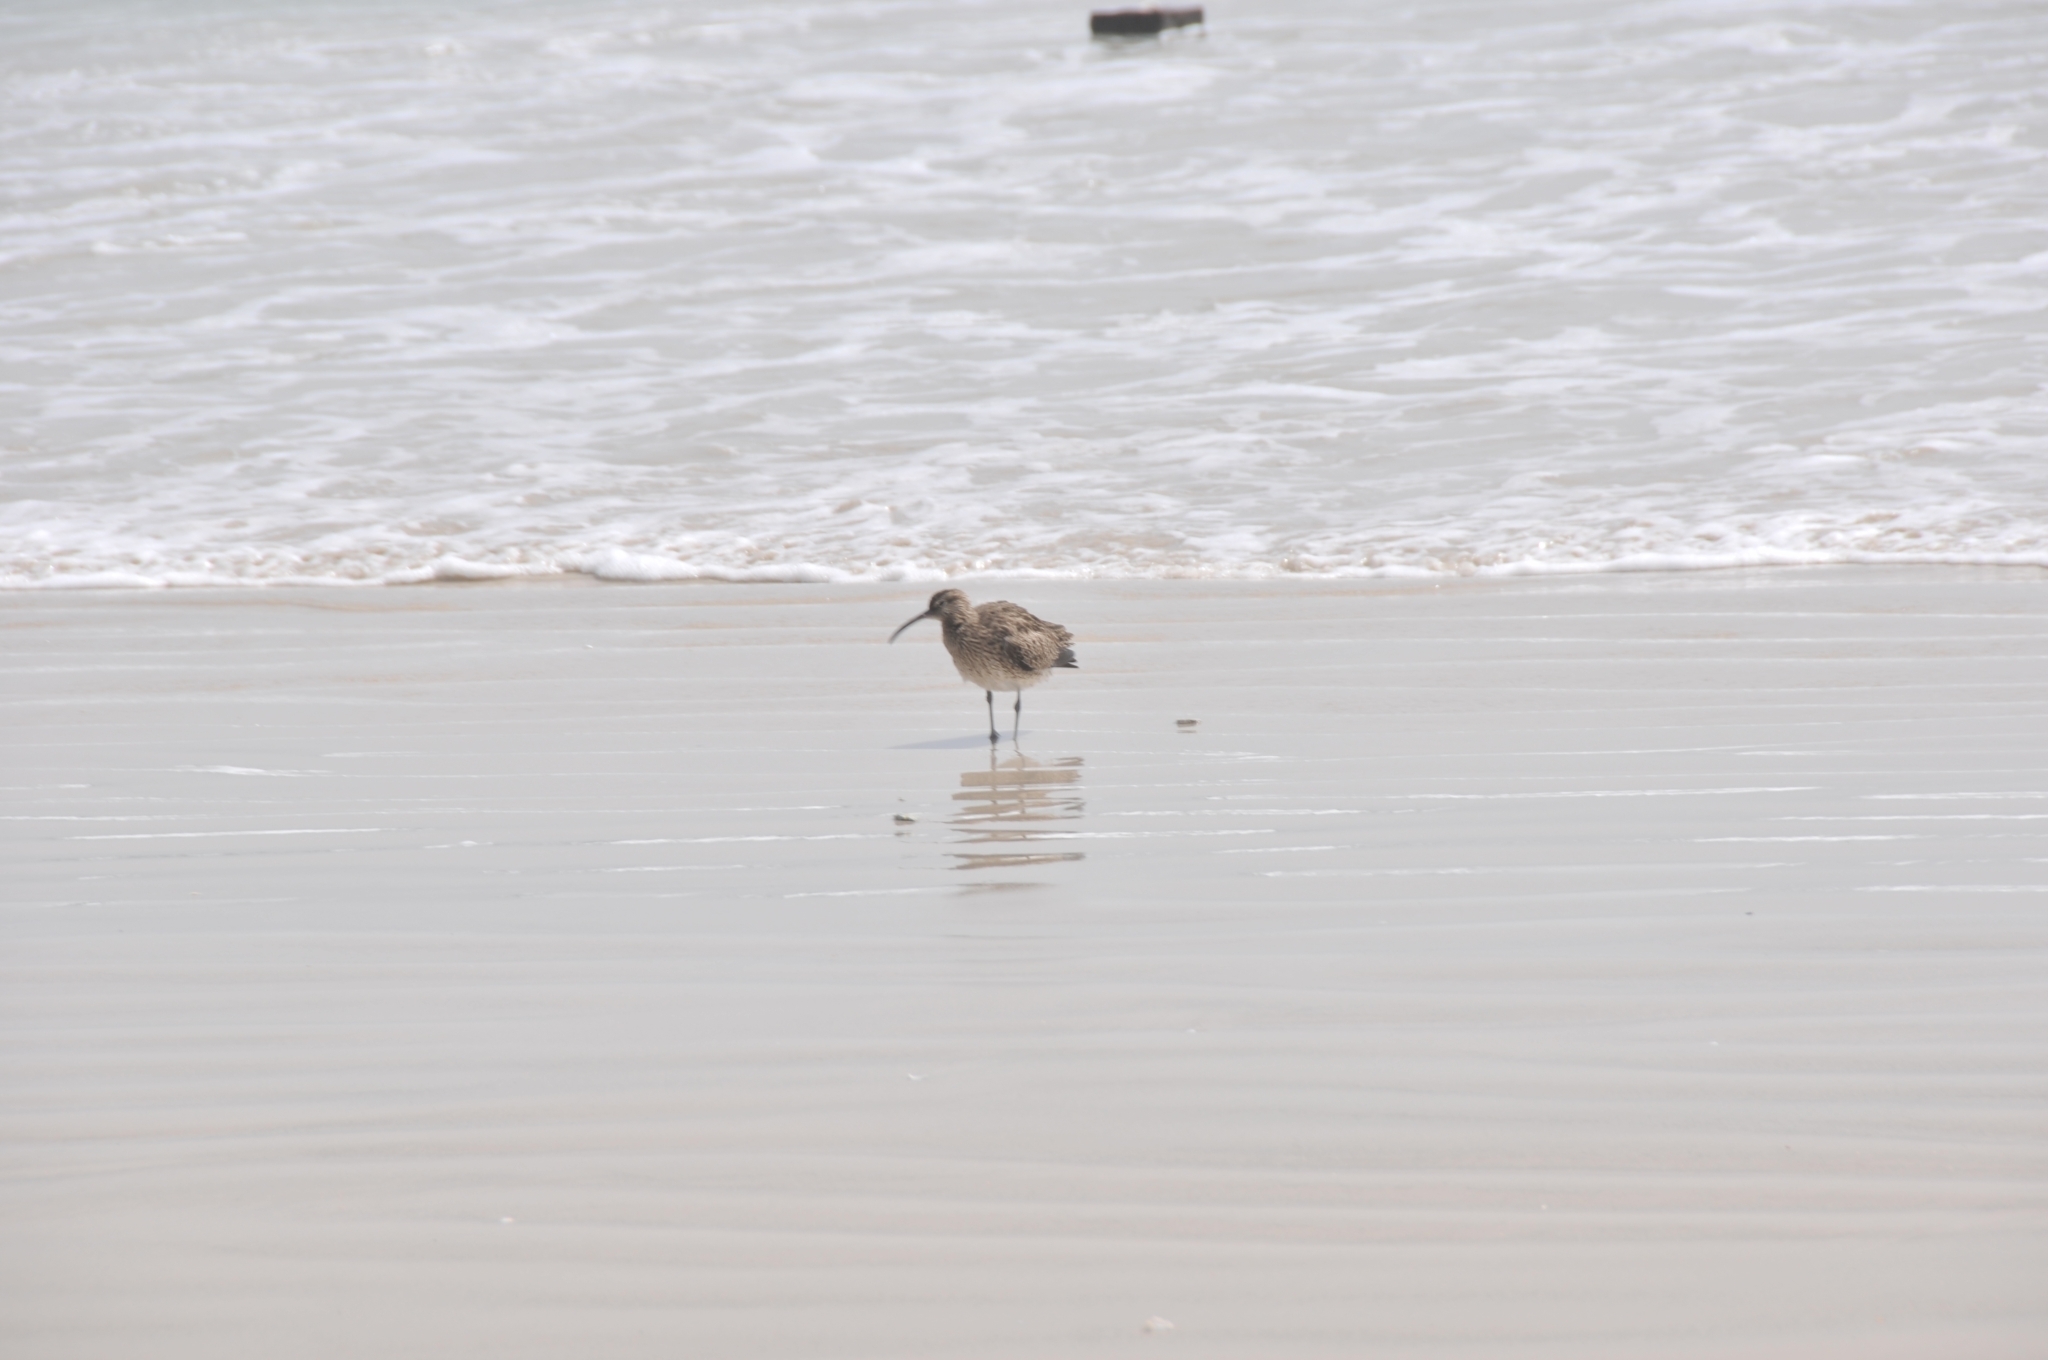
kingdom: Animalia
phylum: Chordata
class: Aves
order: Charadriiformes
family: Scolopacidae
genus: Numenius
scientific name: Numenius phaeopus
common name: Whimbrel
